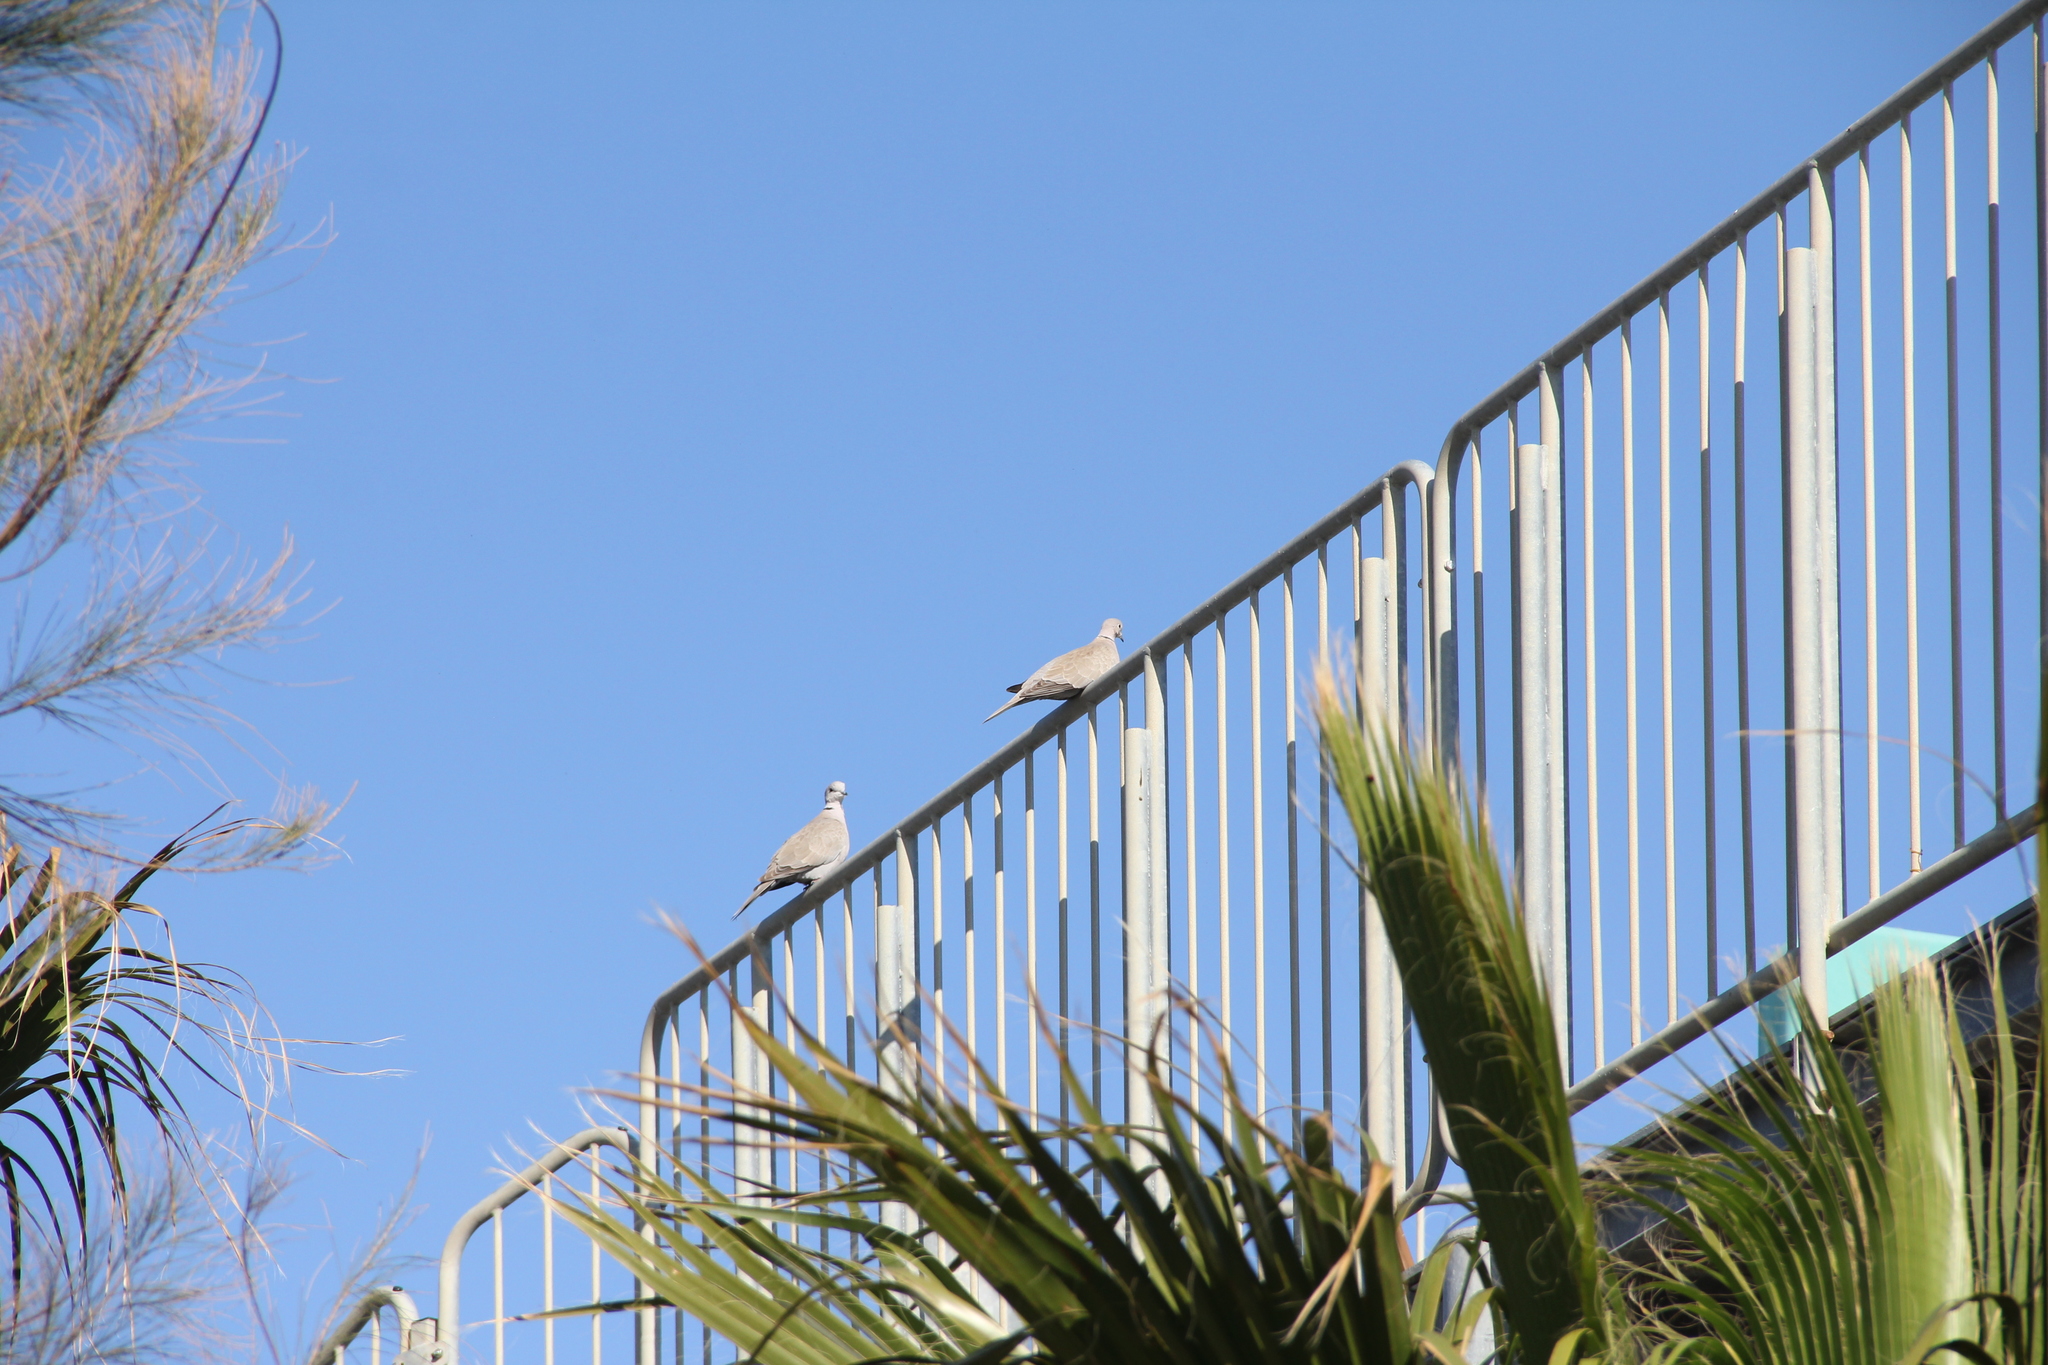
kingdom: Animalia
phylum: Chordata
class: Aves
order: Columbiformes
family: Columbidae
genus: Streptopelia
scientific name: Streptopelia decaocto
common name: Eurasian collared dove
